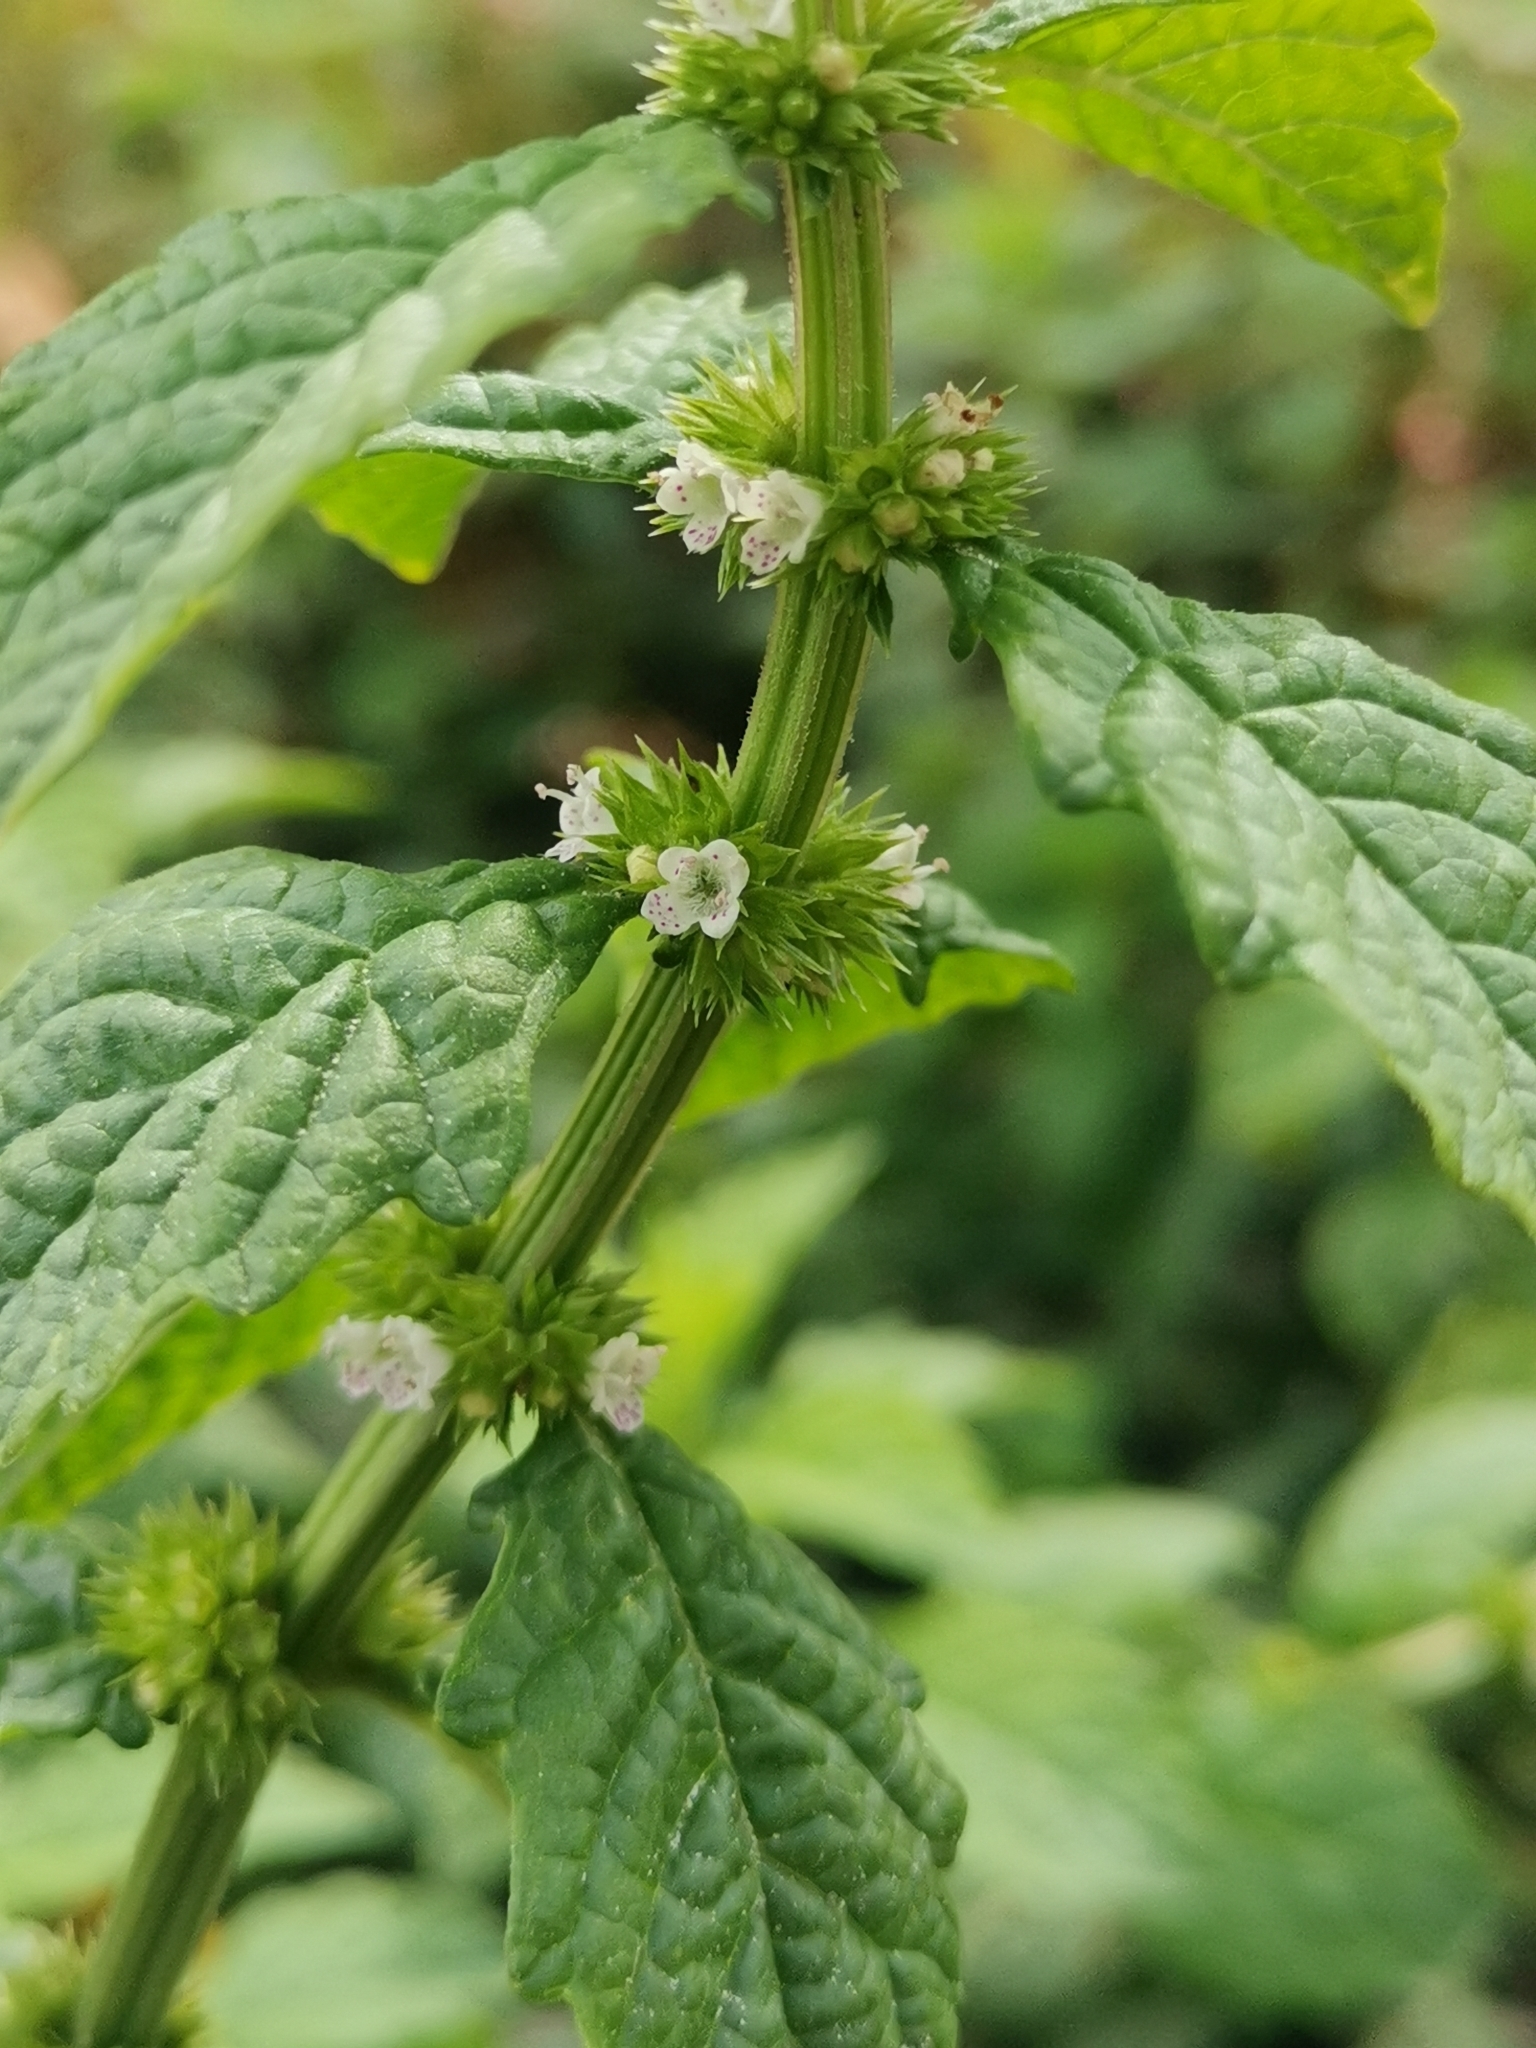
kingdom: Plantae
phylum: Tracheophyta
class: Magnoliopsida
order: Lamiales
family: Lamiaceae
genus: Lycopus
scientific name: Lycopus europaeus
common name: European bugleweed
